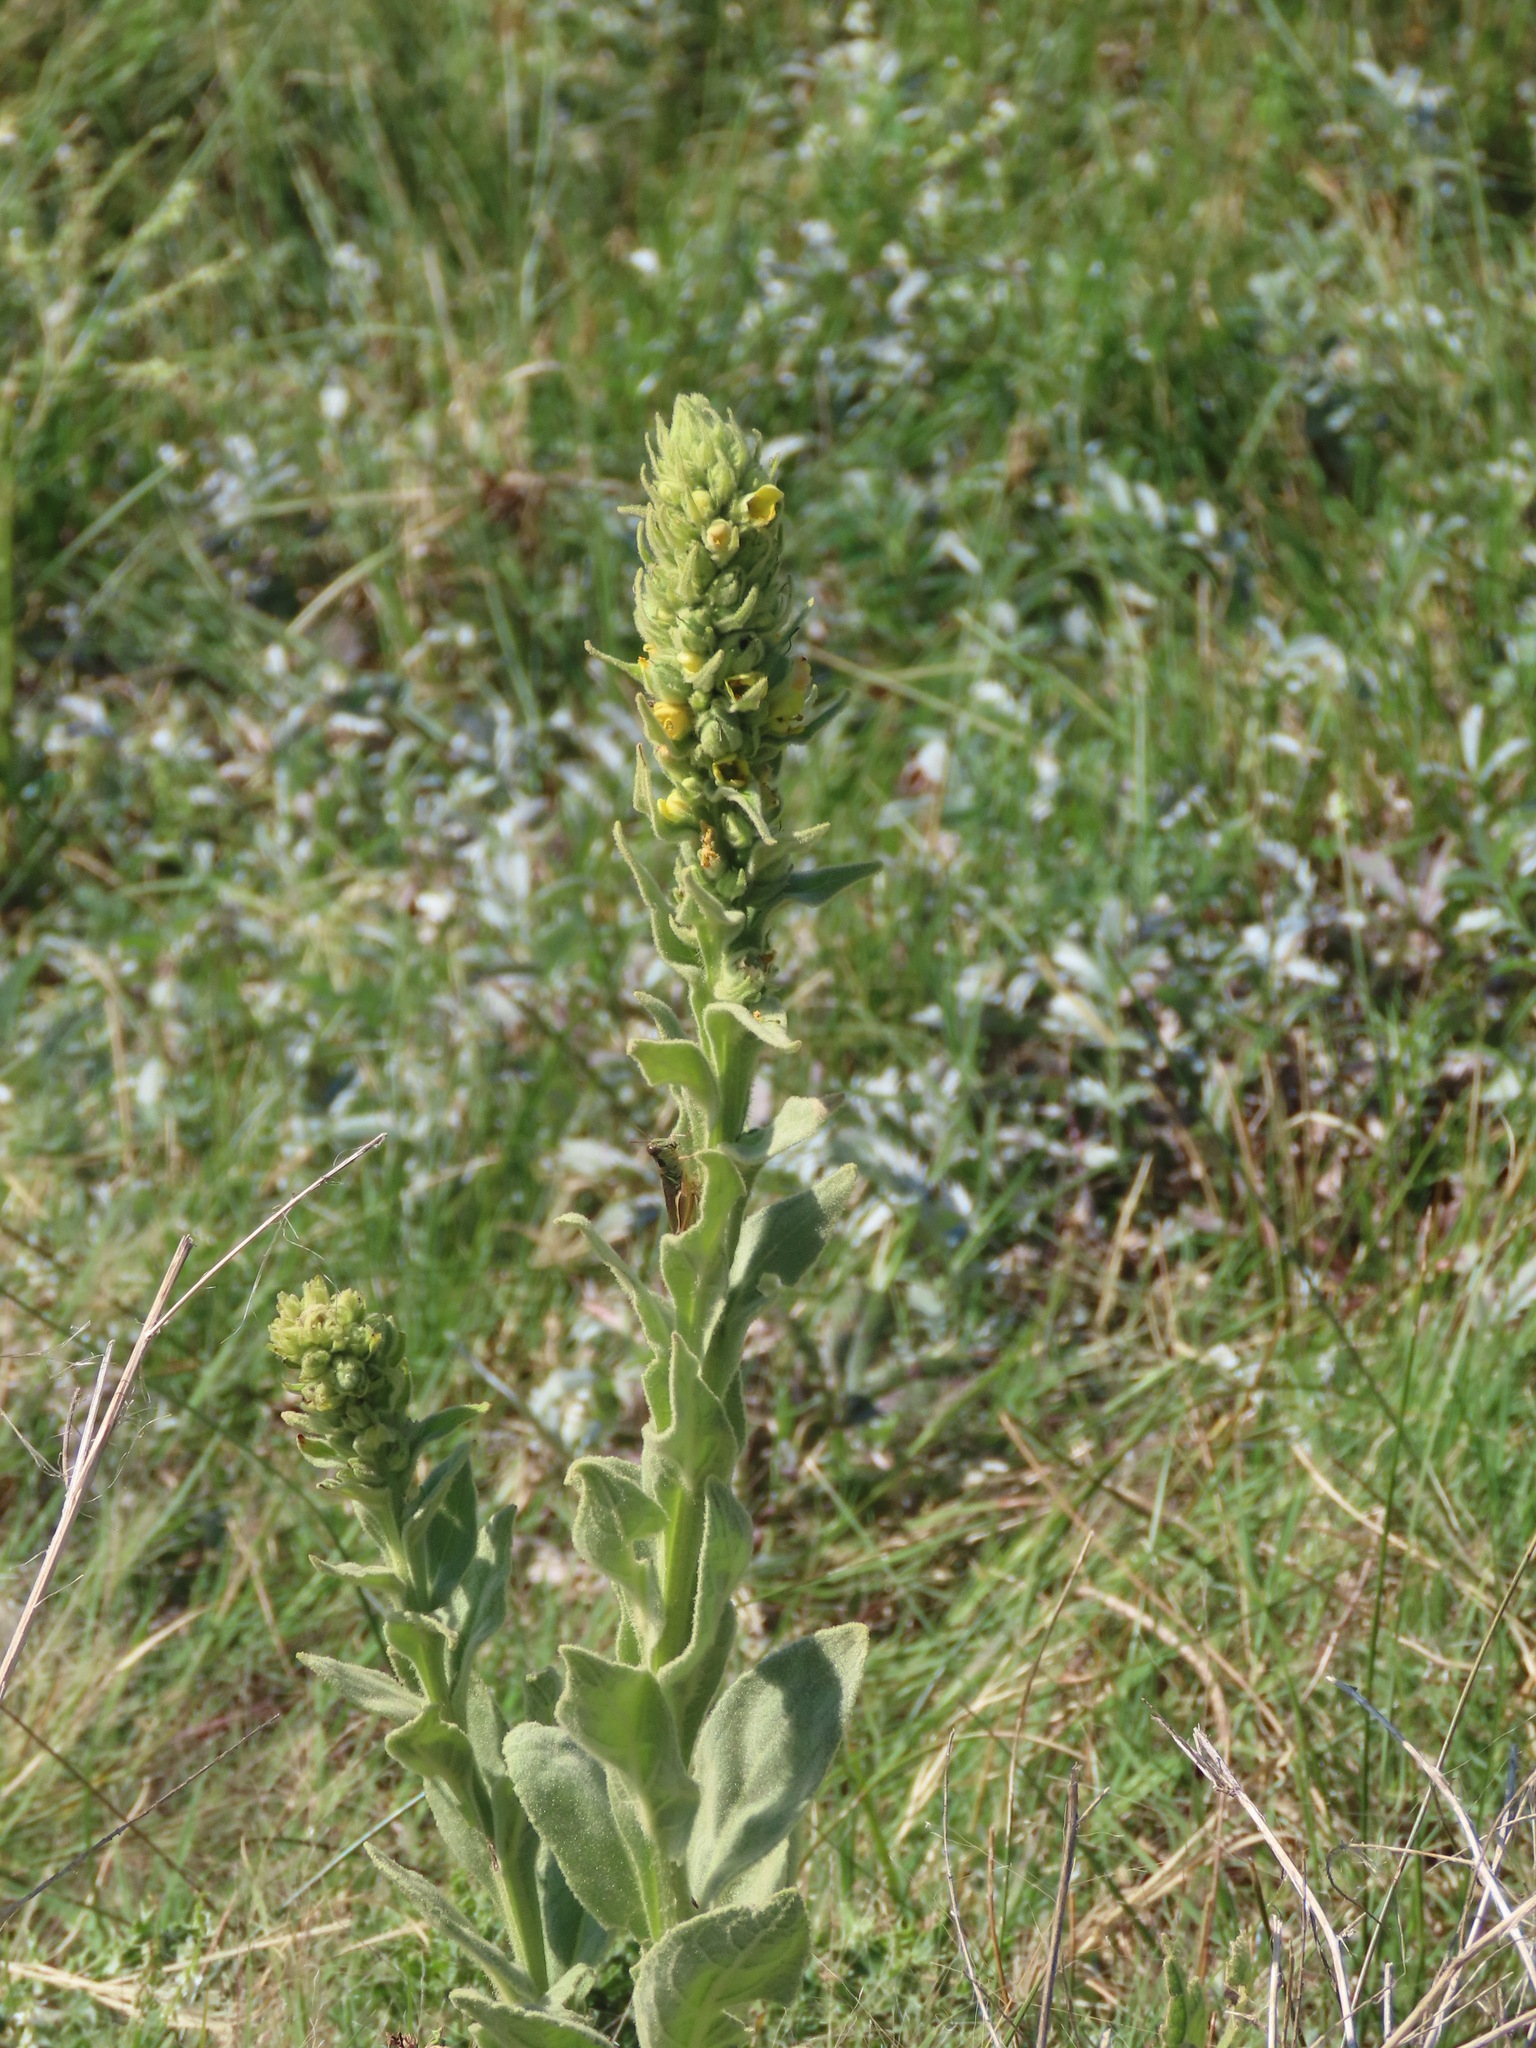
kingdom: Plantae
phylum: Tracheophyta
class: Magnoliopsida
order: Lamiales
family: Scrophulariaceae
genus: Verbascum
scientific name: Verbascum thapsus
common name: Common mullein
